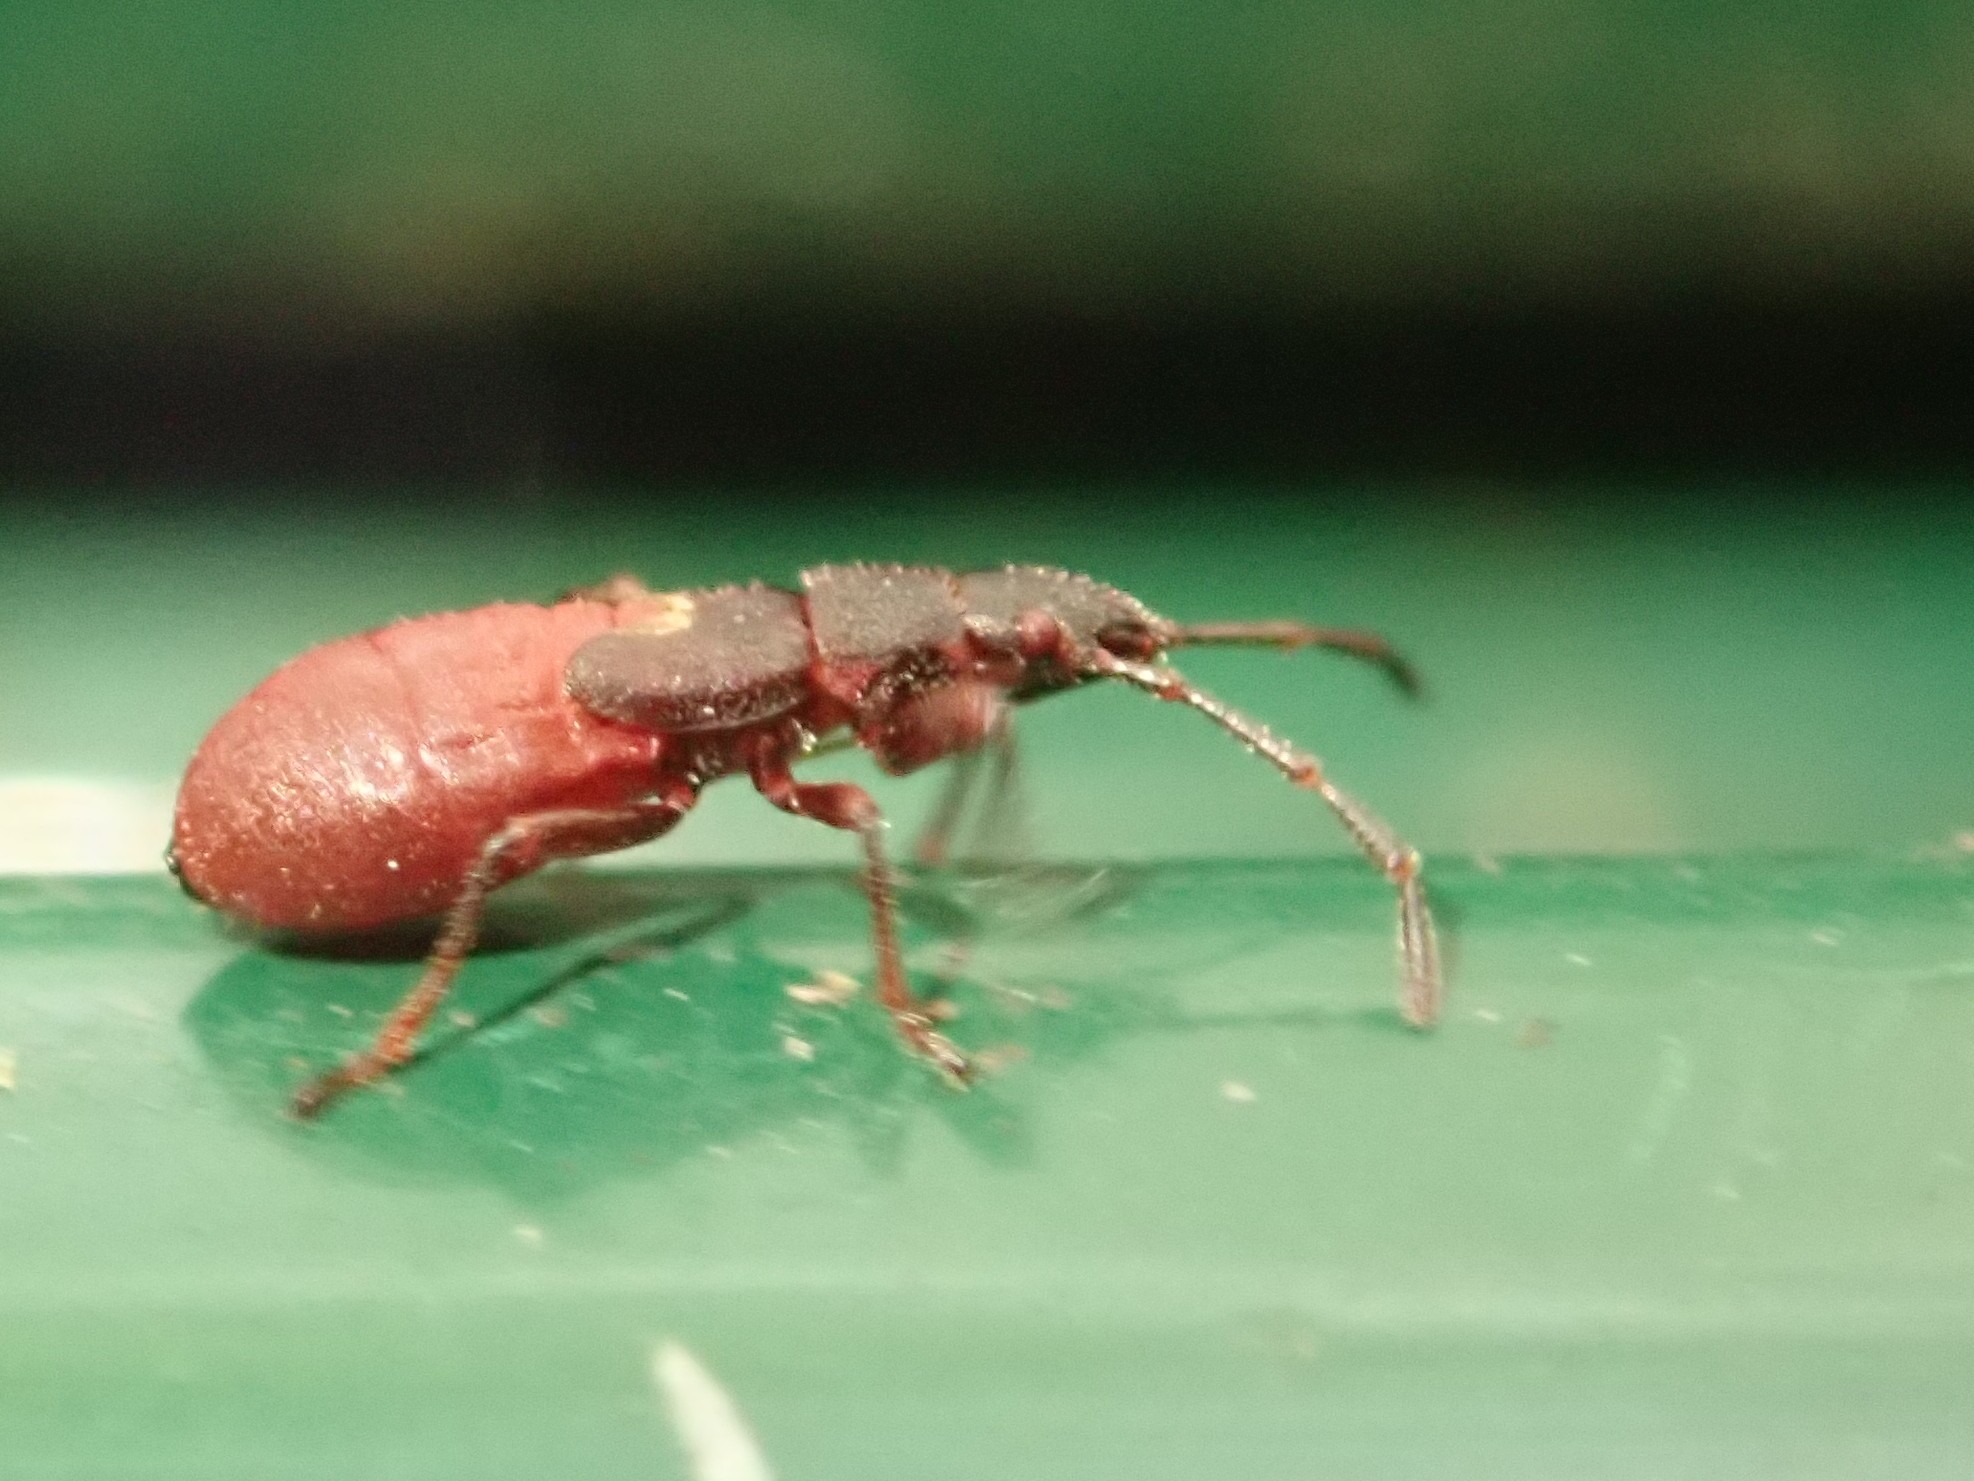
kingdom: Animalia
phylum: Arthropoda
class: Insecta
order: Hemiptera
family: Oxycarenidae
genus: Oxycarenus
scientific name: Oxycarenus lavaterae
